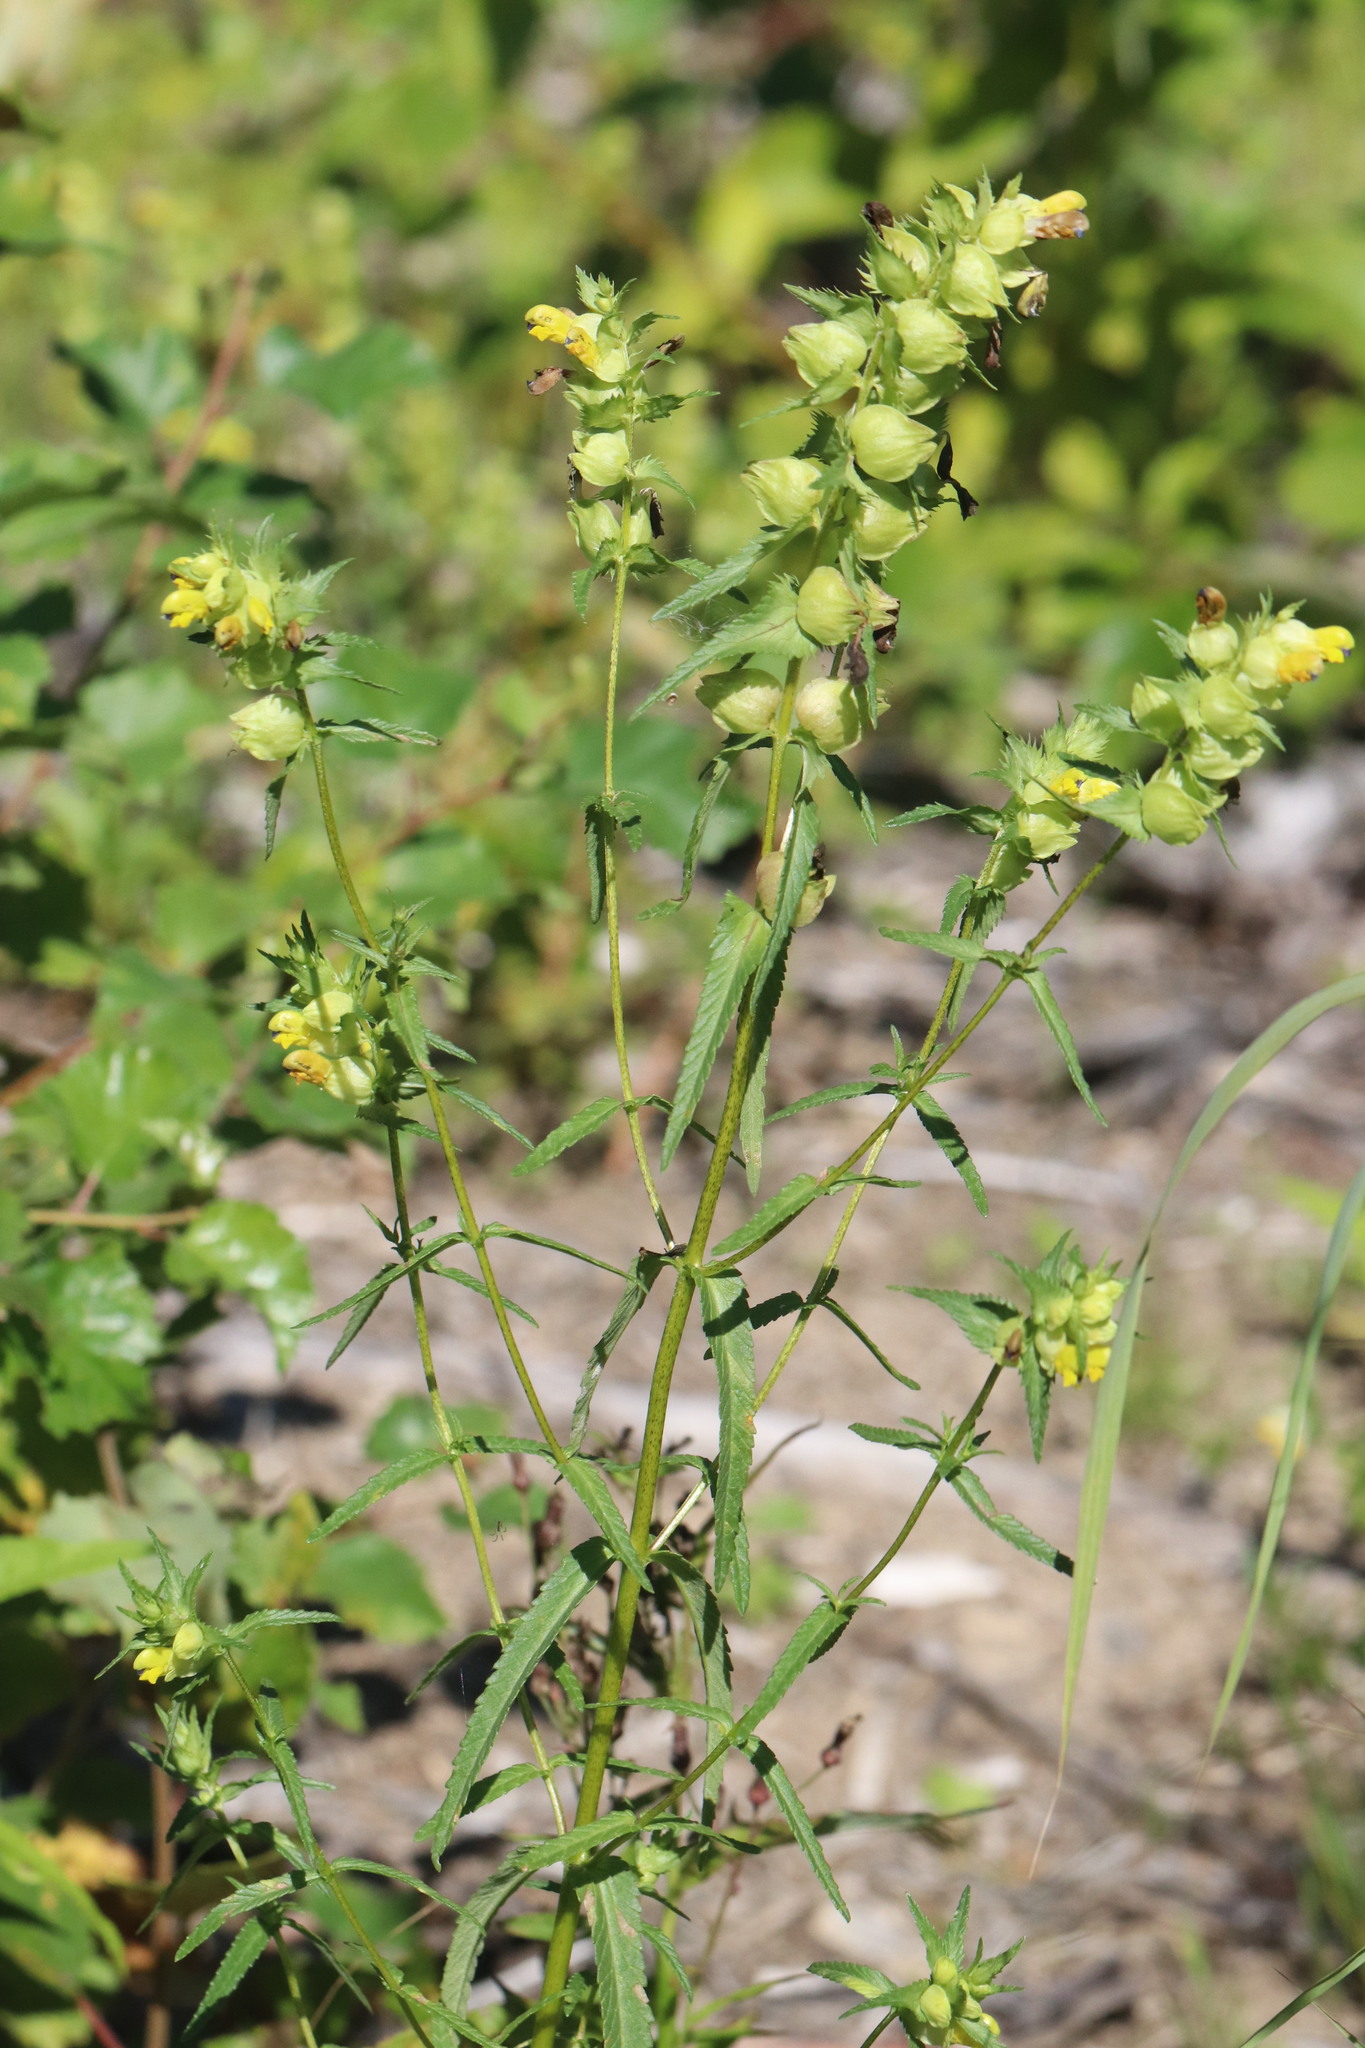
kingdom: Plantae
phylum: Tracheophyta
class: Magnoliopsida
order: Lamiales
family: Orobanchaceae
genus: Rhinanthus
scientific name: Rhinanthus serotinus
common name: Late-flowering yellow rattle
